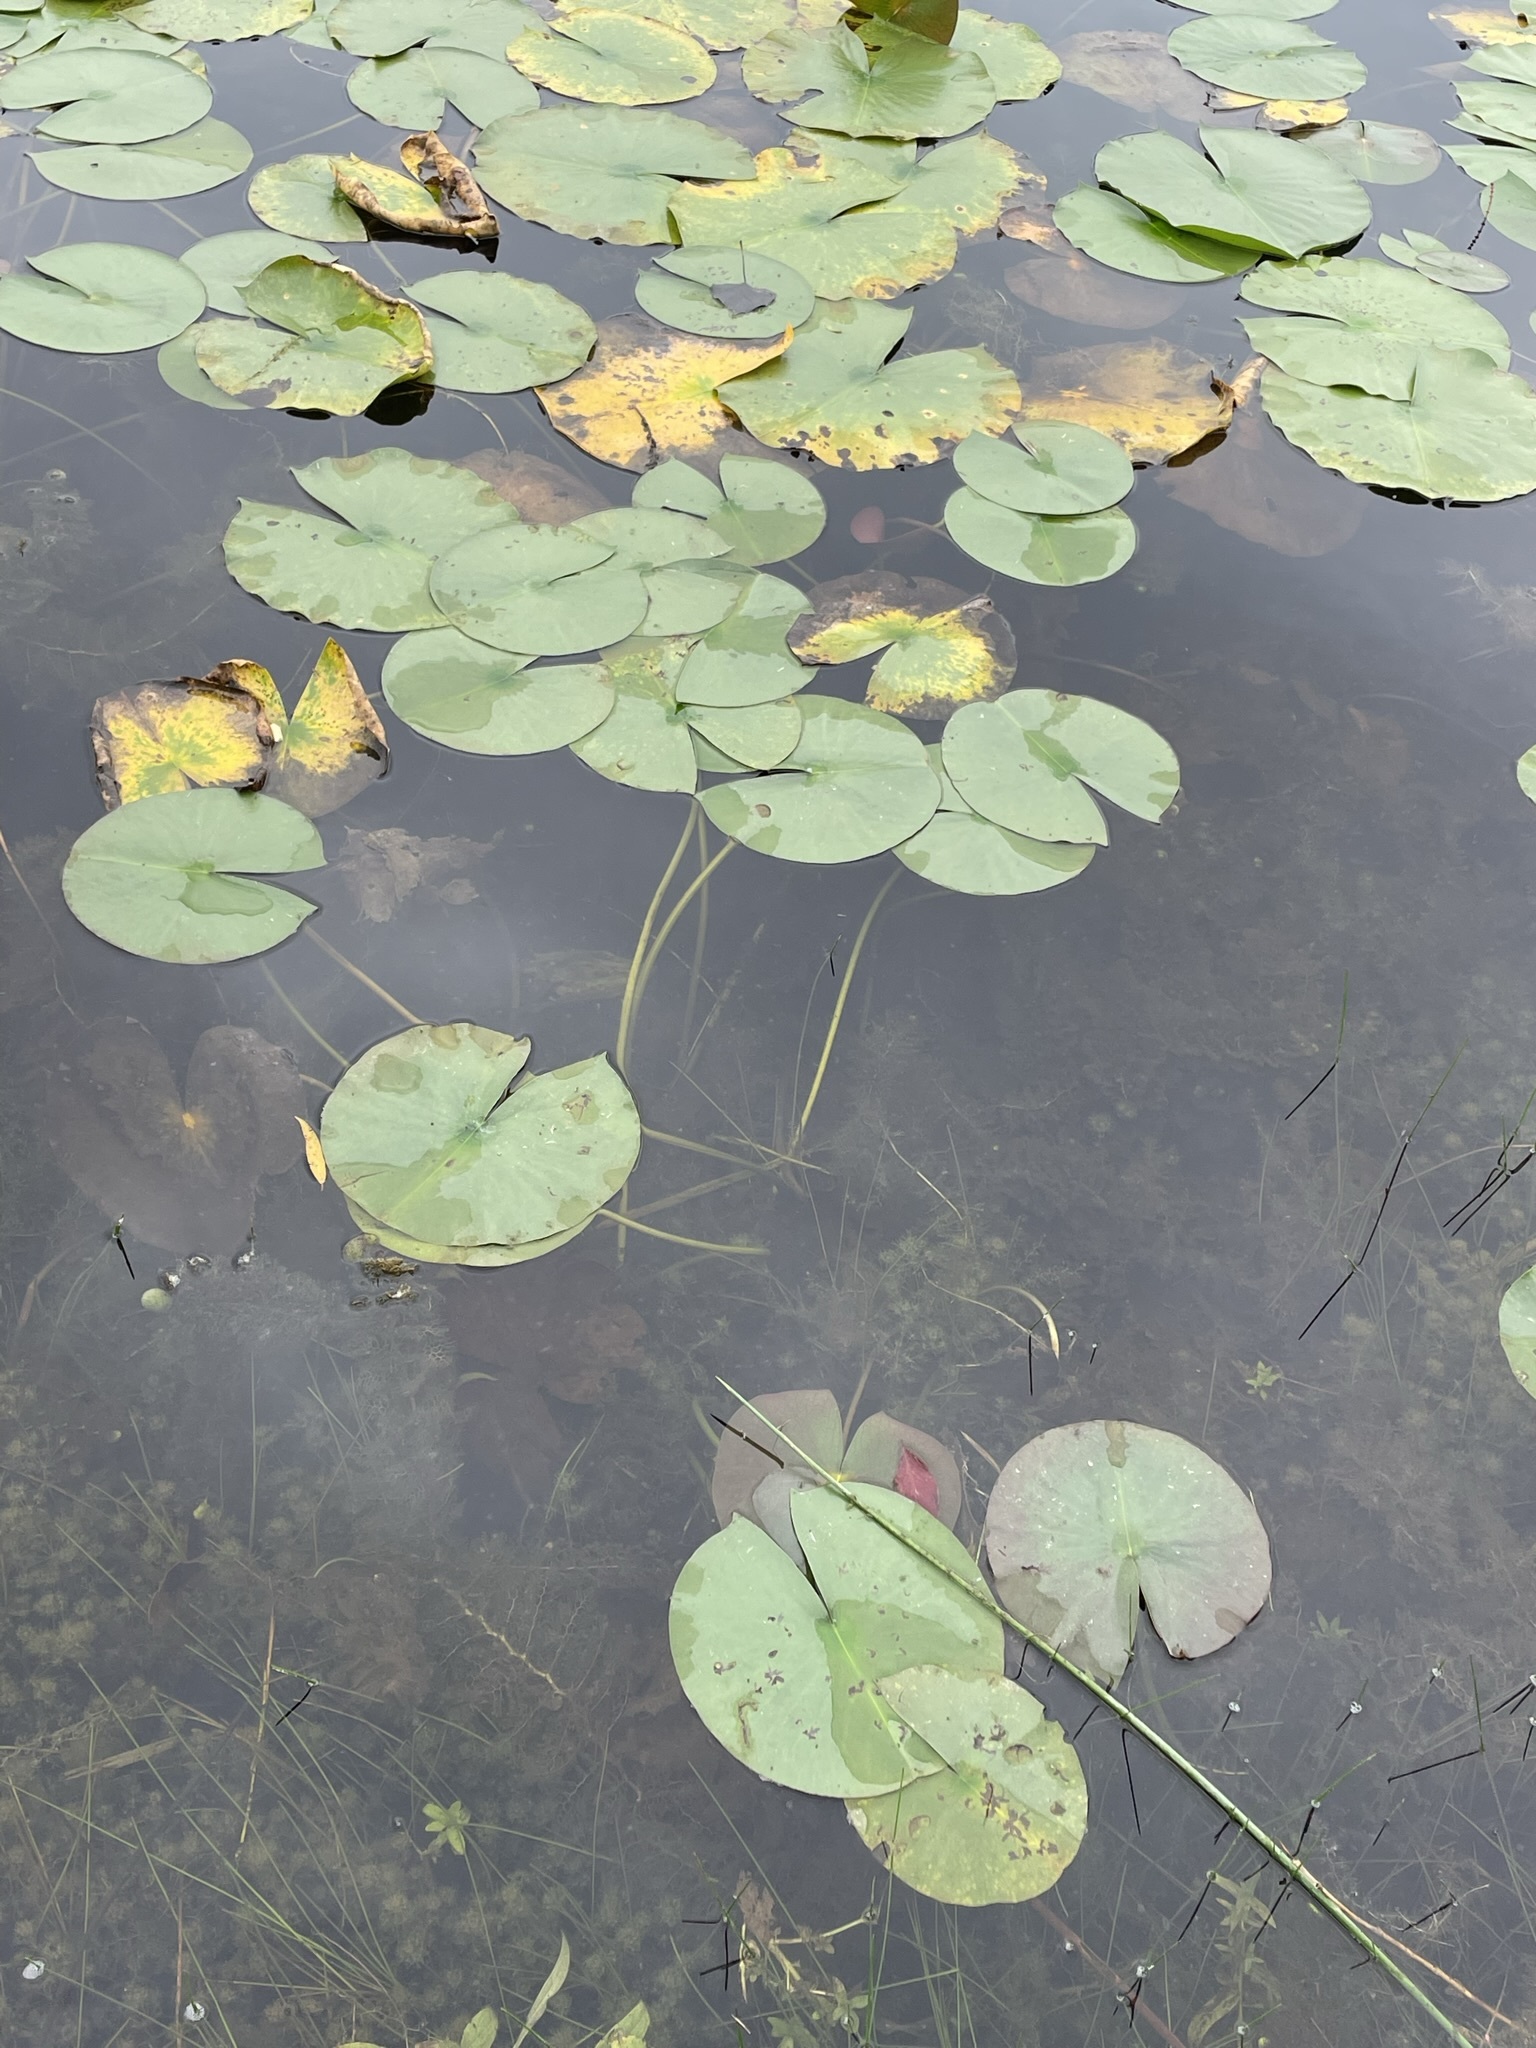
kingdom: Plantae
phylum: Tracheophyta
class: Magnoliopsida
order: Nymphaeales
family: Nymphaeaceae
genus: Nymphaea
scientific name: Nymphaea odorata
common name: Fragrant water-lily
